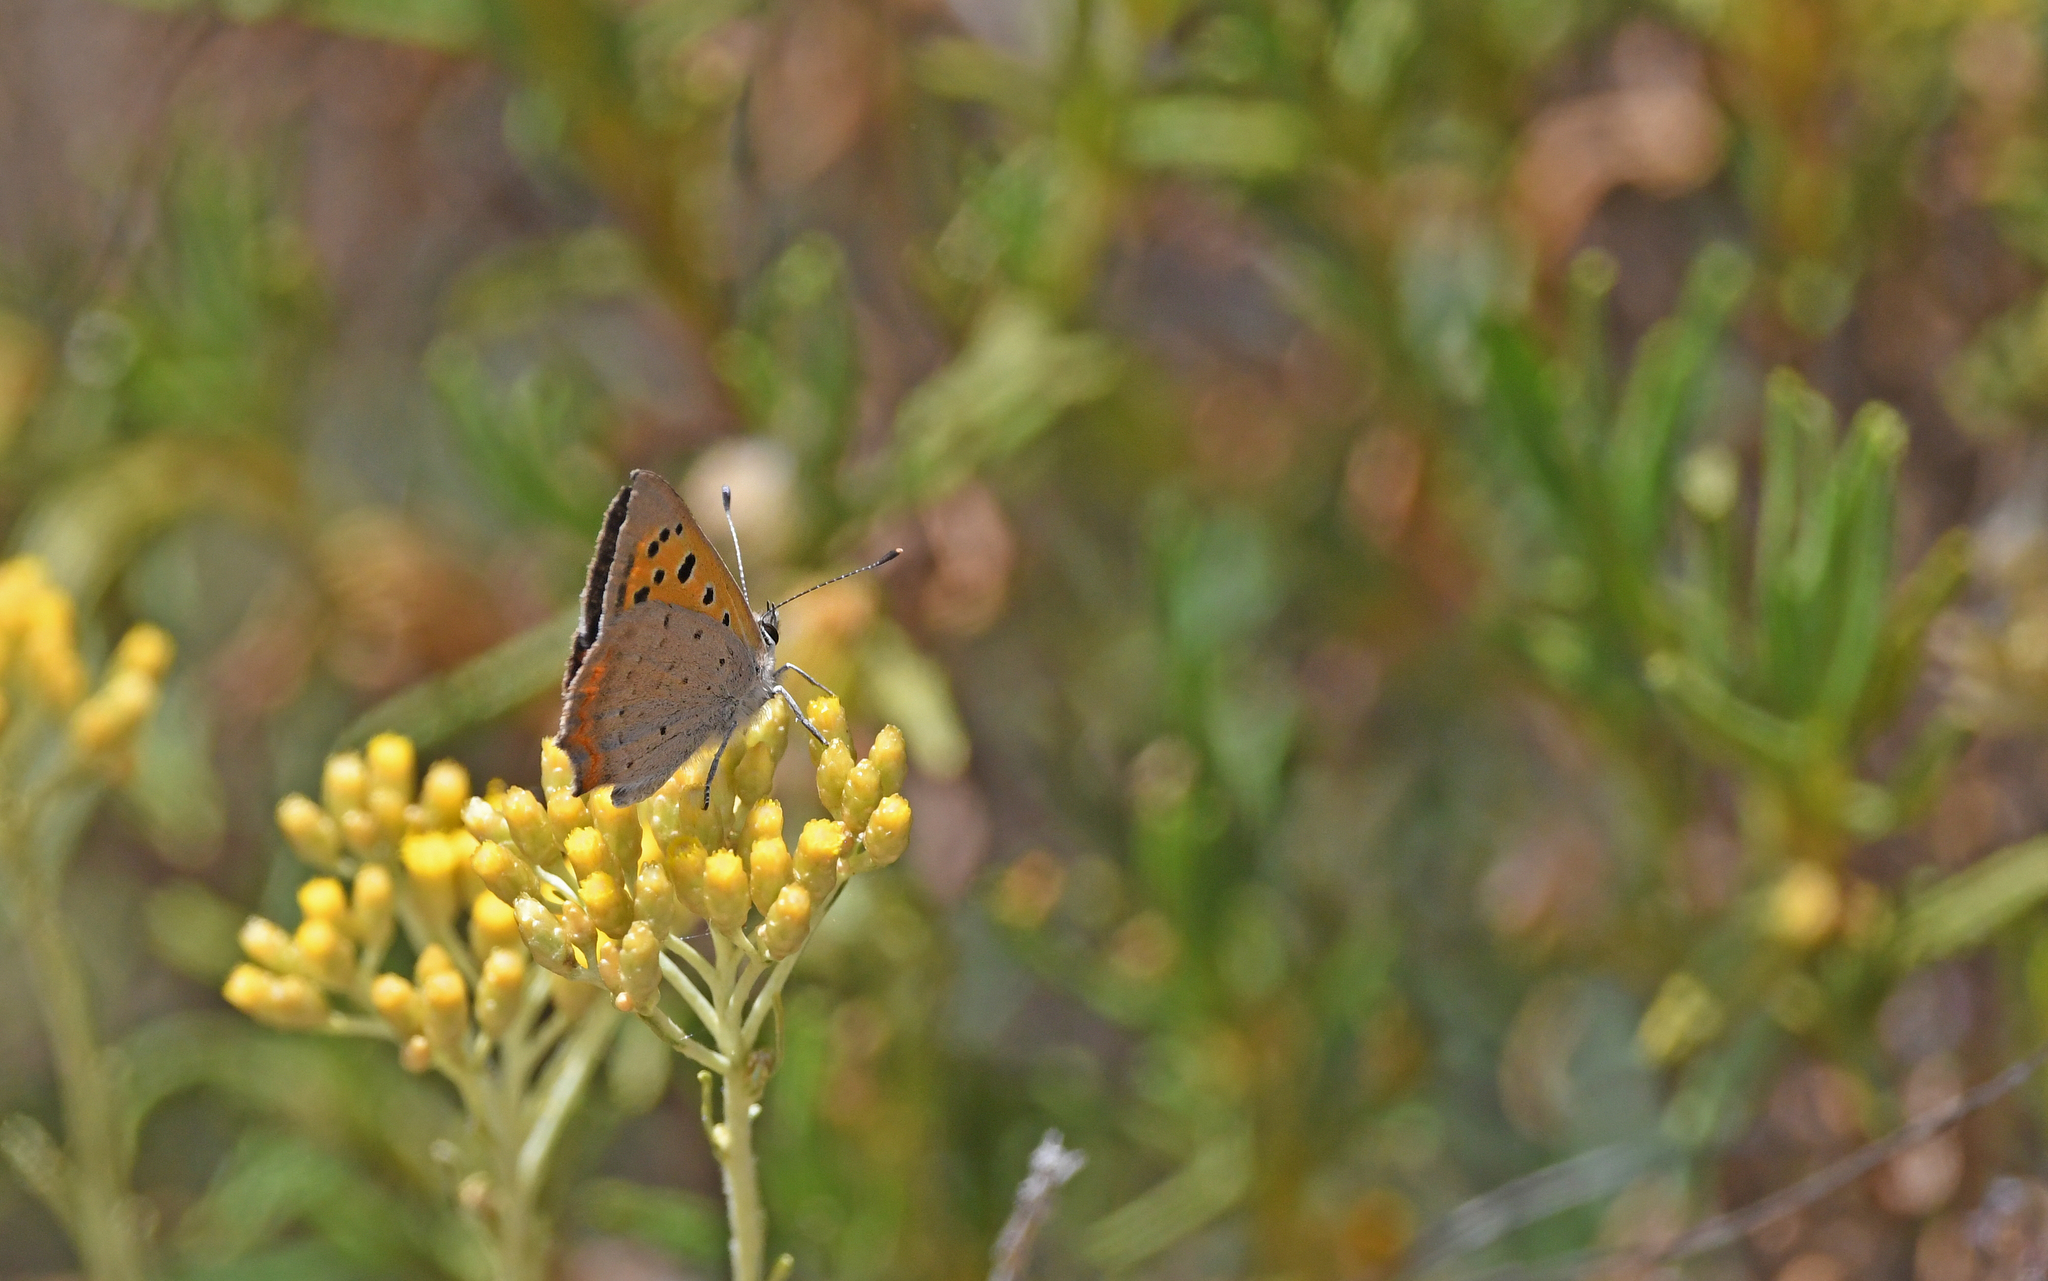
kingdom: Animalia
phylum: Arthropoda
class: Insecta
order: Lepidoptera
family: Lycaenidae
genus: Lycaena
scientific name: Lycaena phlaeas
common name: Small copper
